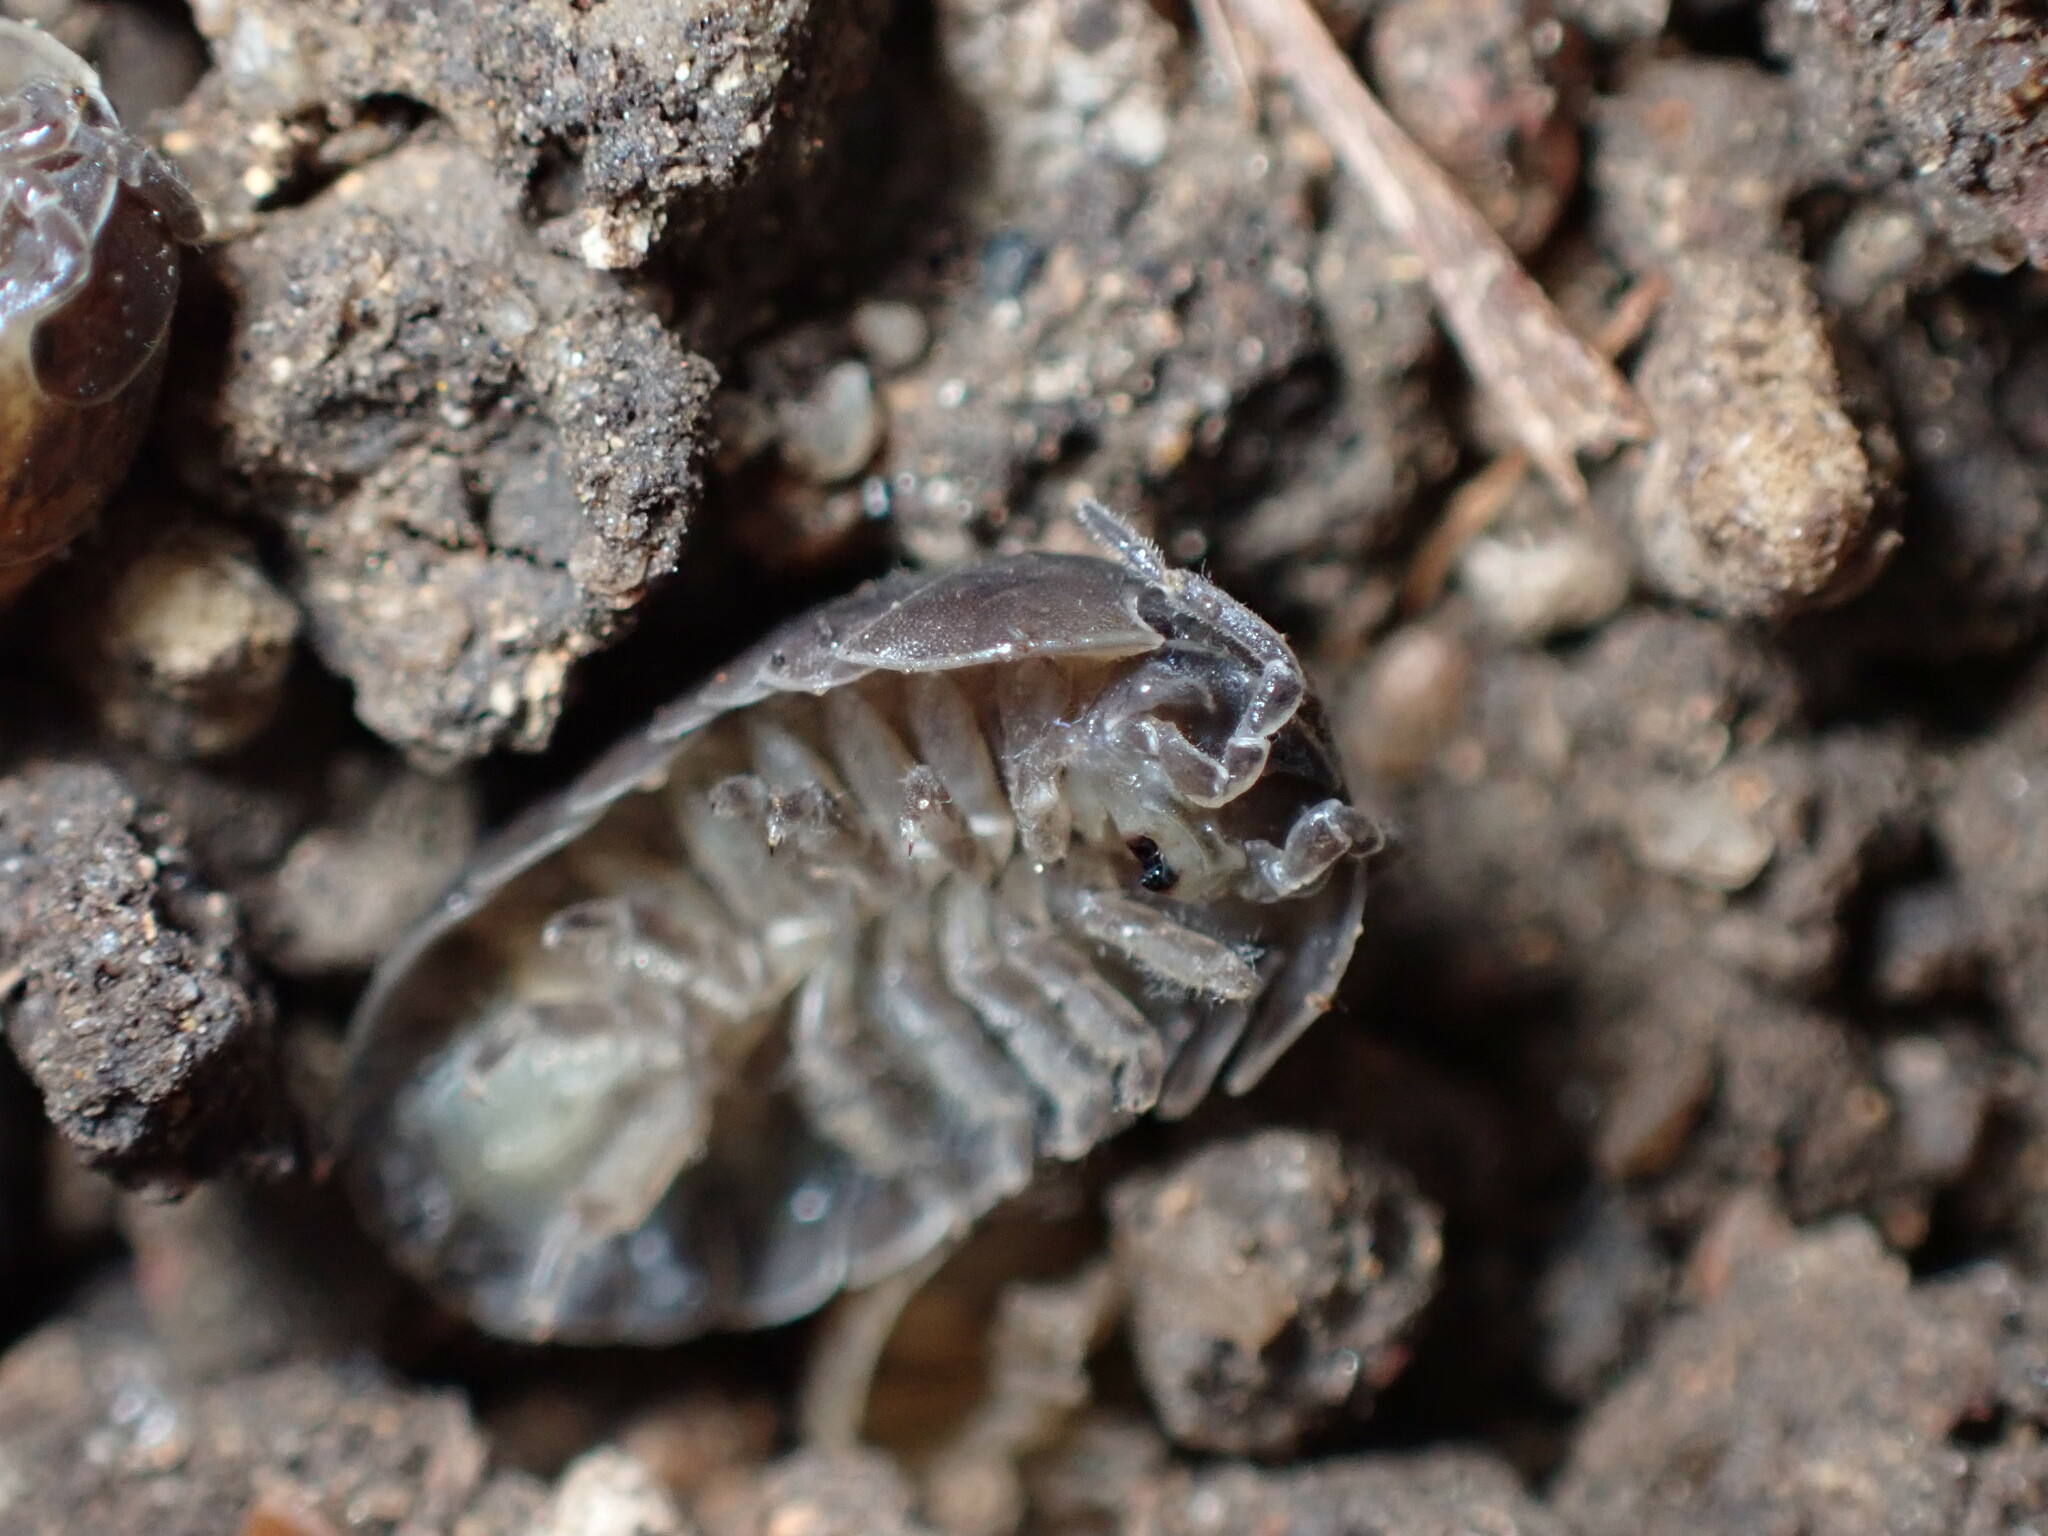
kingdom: Animalia
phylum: Arthropoda
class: Malacostraca
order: Isopoda
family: Armadillidiidae
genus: Armadillidium
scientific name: Armadillidium vulgare
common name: Common pill woodlouse
